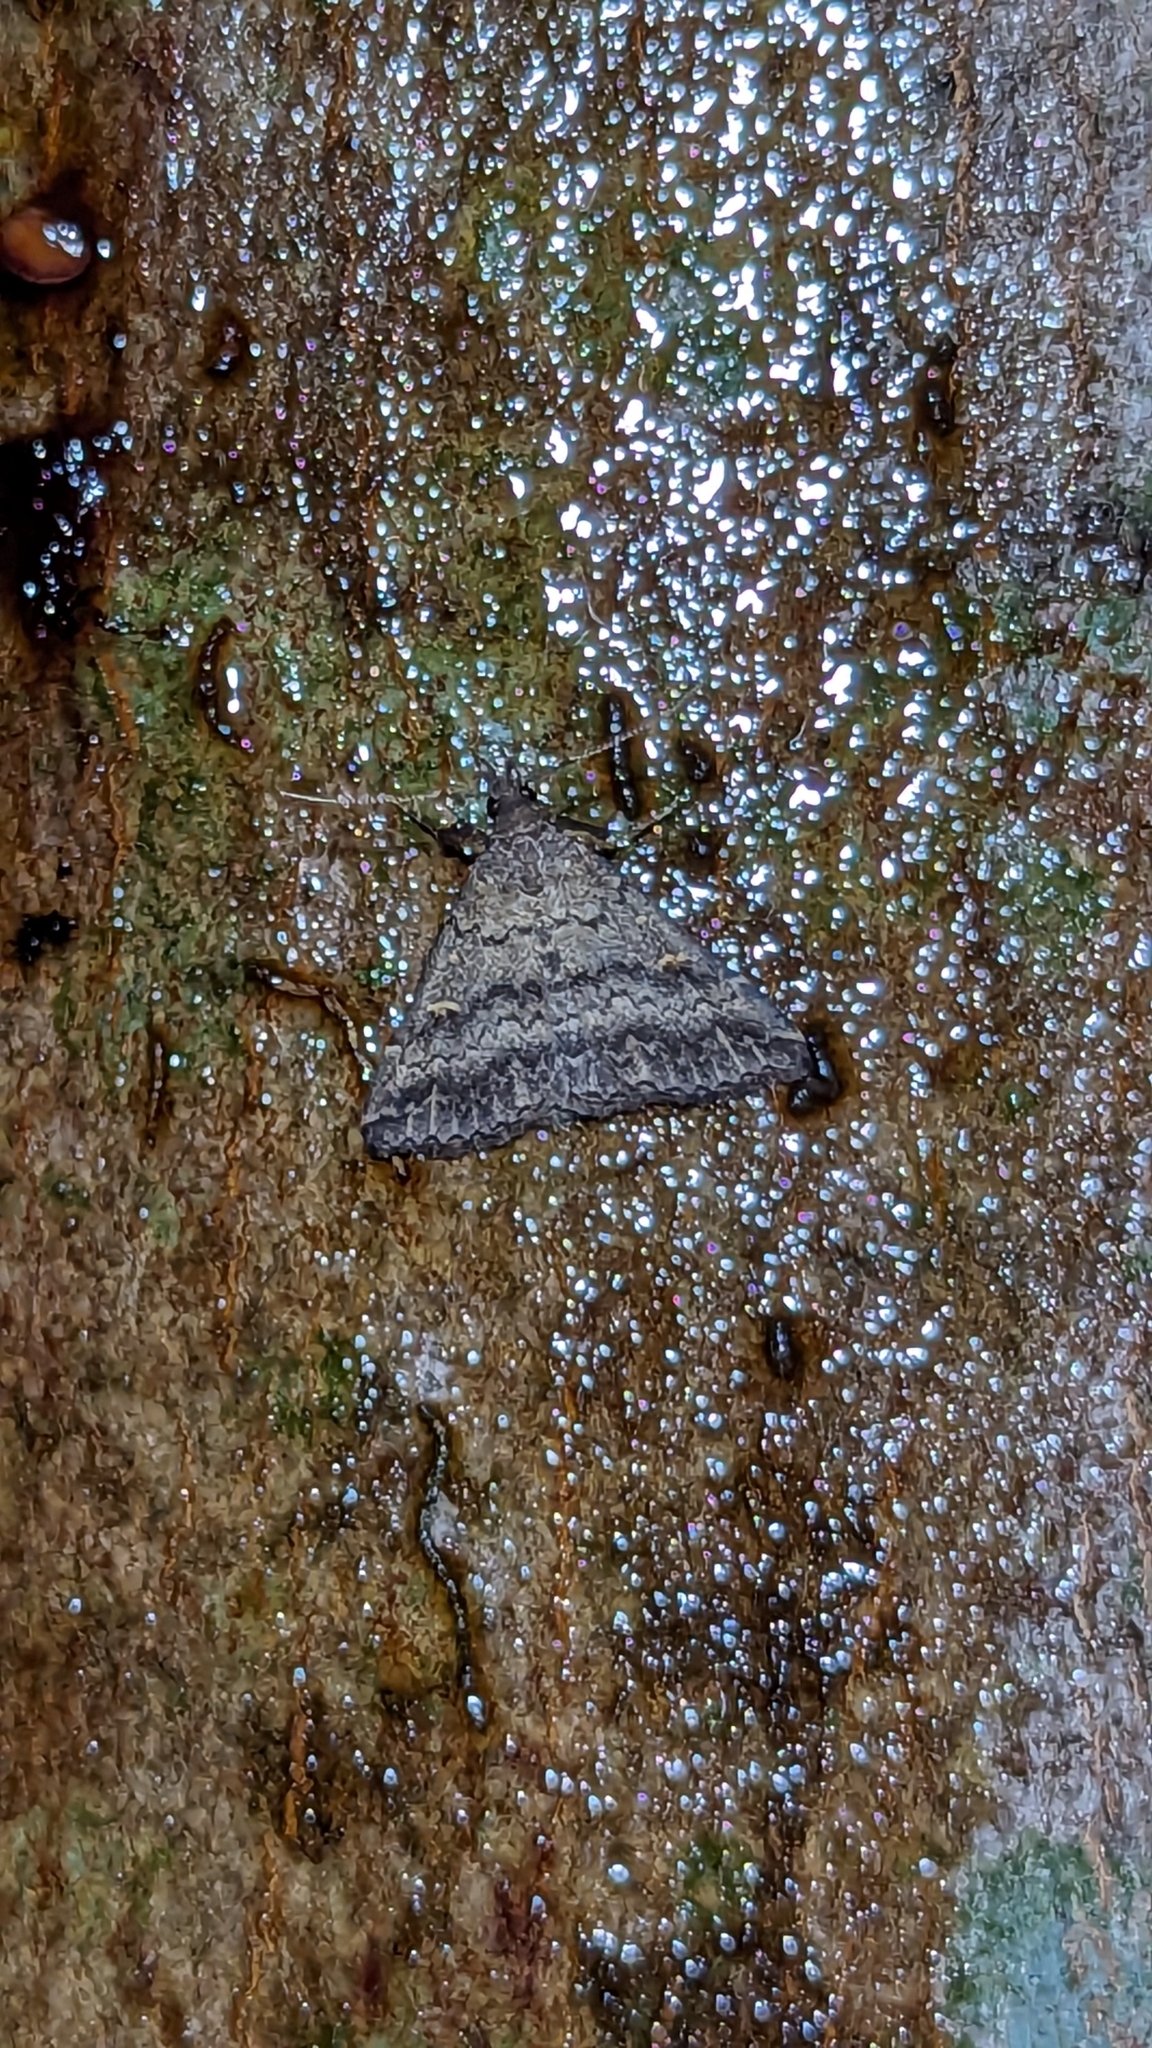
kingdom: Animalia
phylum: Arthropoda
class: Insecta
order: Lepidoptera
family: Erebidae
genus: Tetanolita
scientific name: Tetanolita floridana
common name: Florida tetanolita moth
